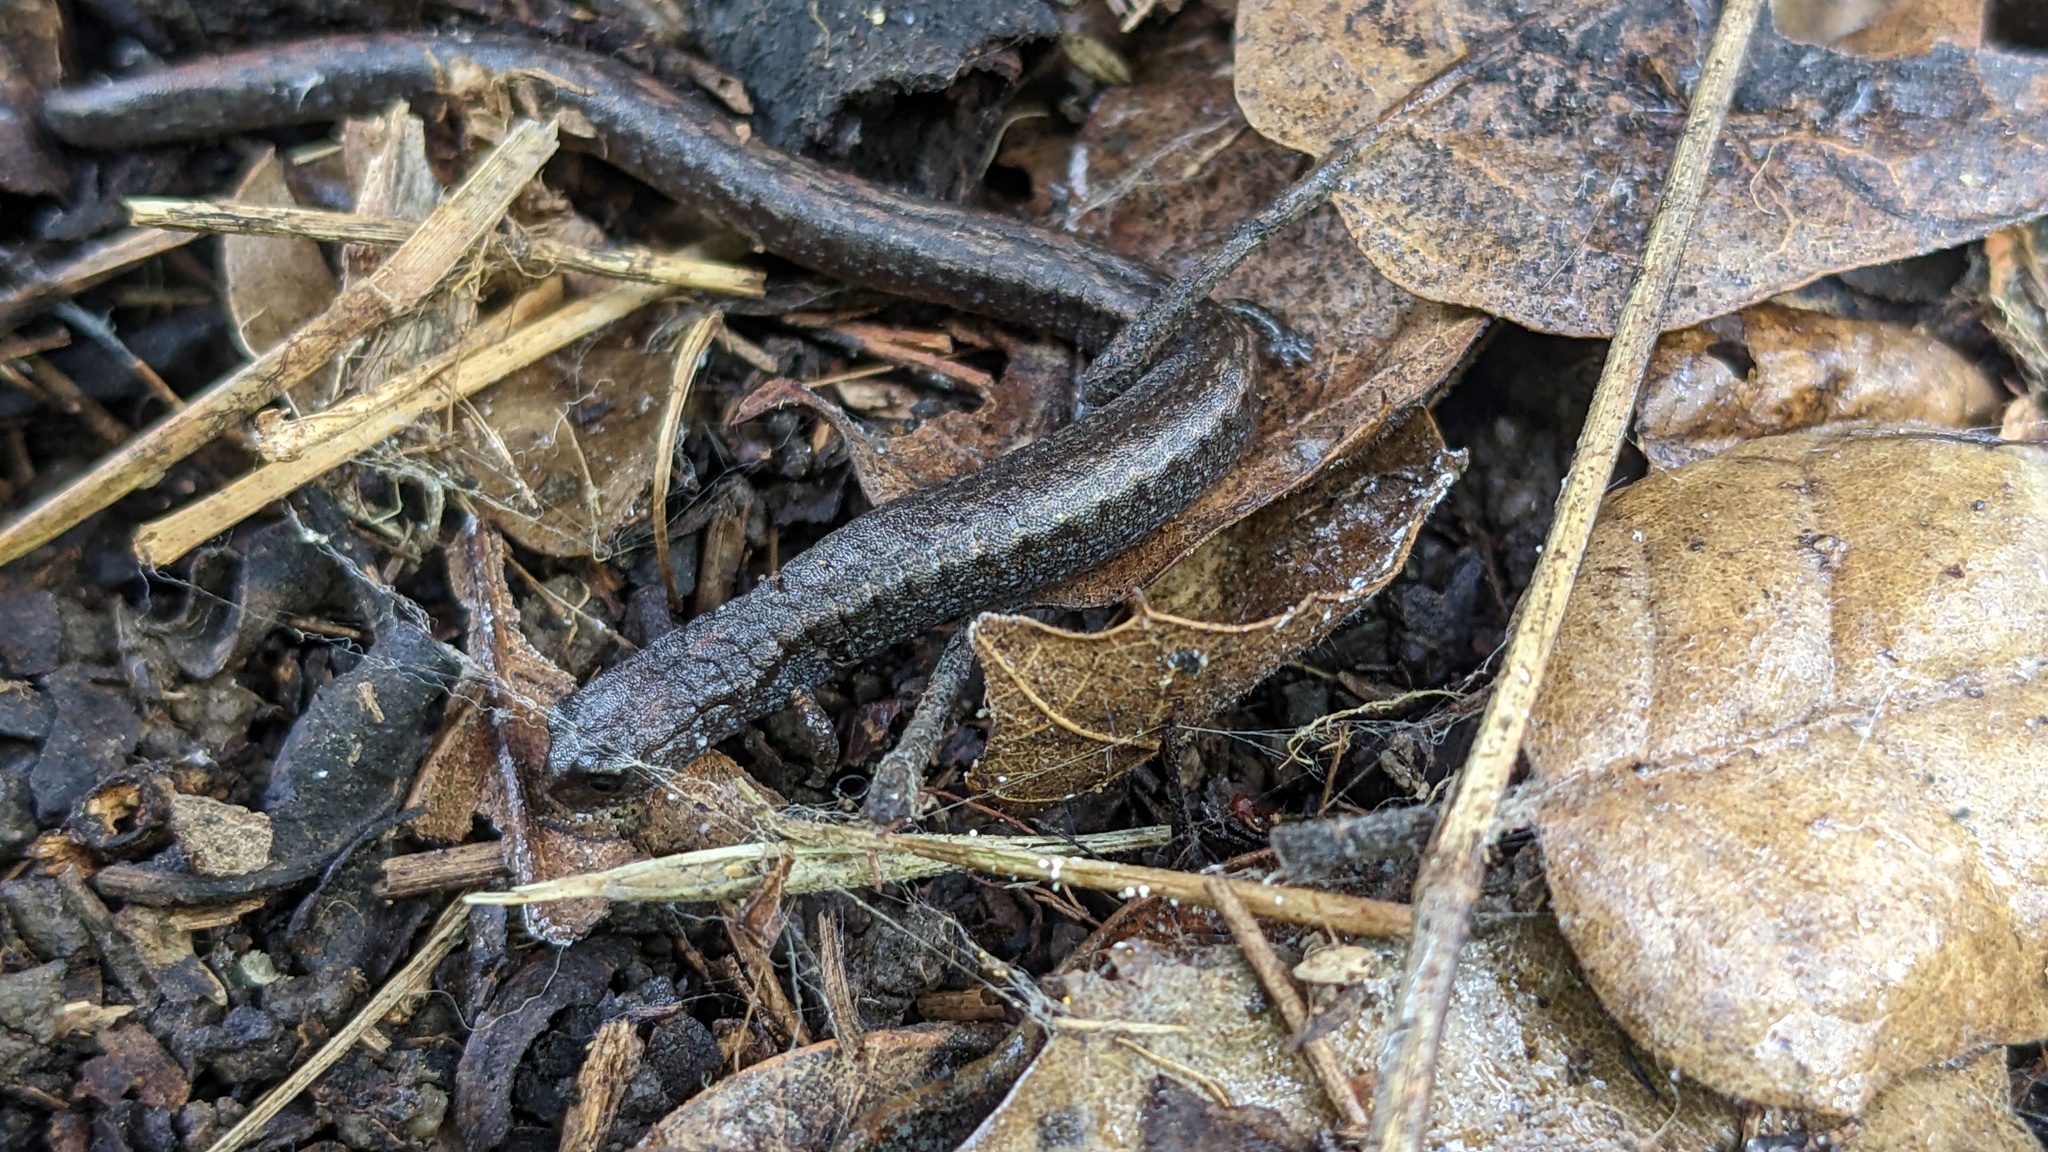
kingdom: Animalia
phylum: Chordata
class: Amphibia
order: Caudata
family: Plethodontidae
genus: Batrachoseps
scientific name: Batrachoseps nigriventris
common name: Black-bellied slender salamander
